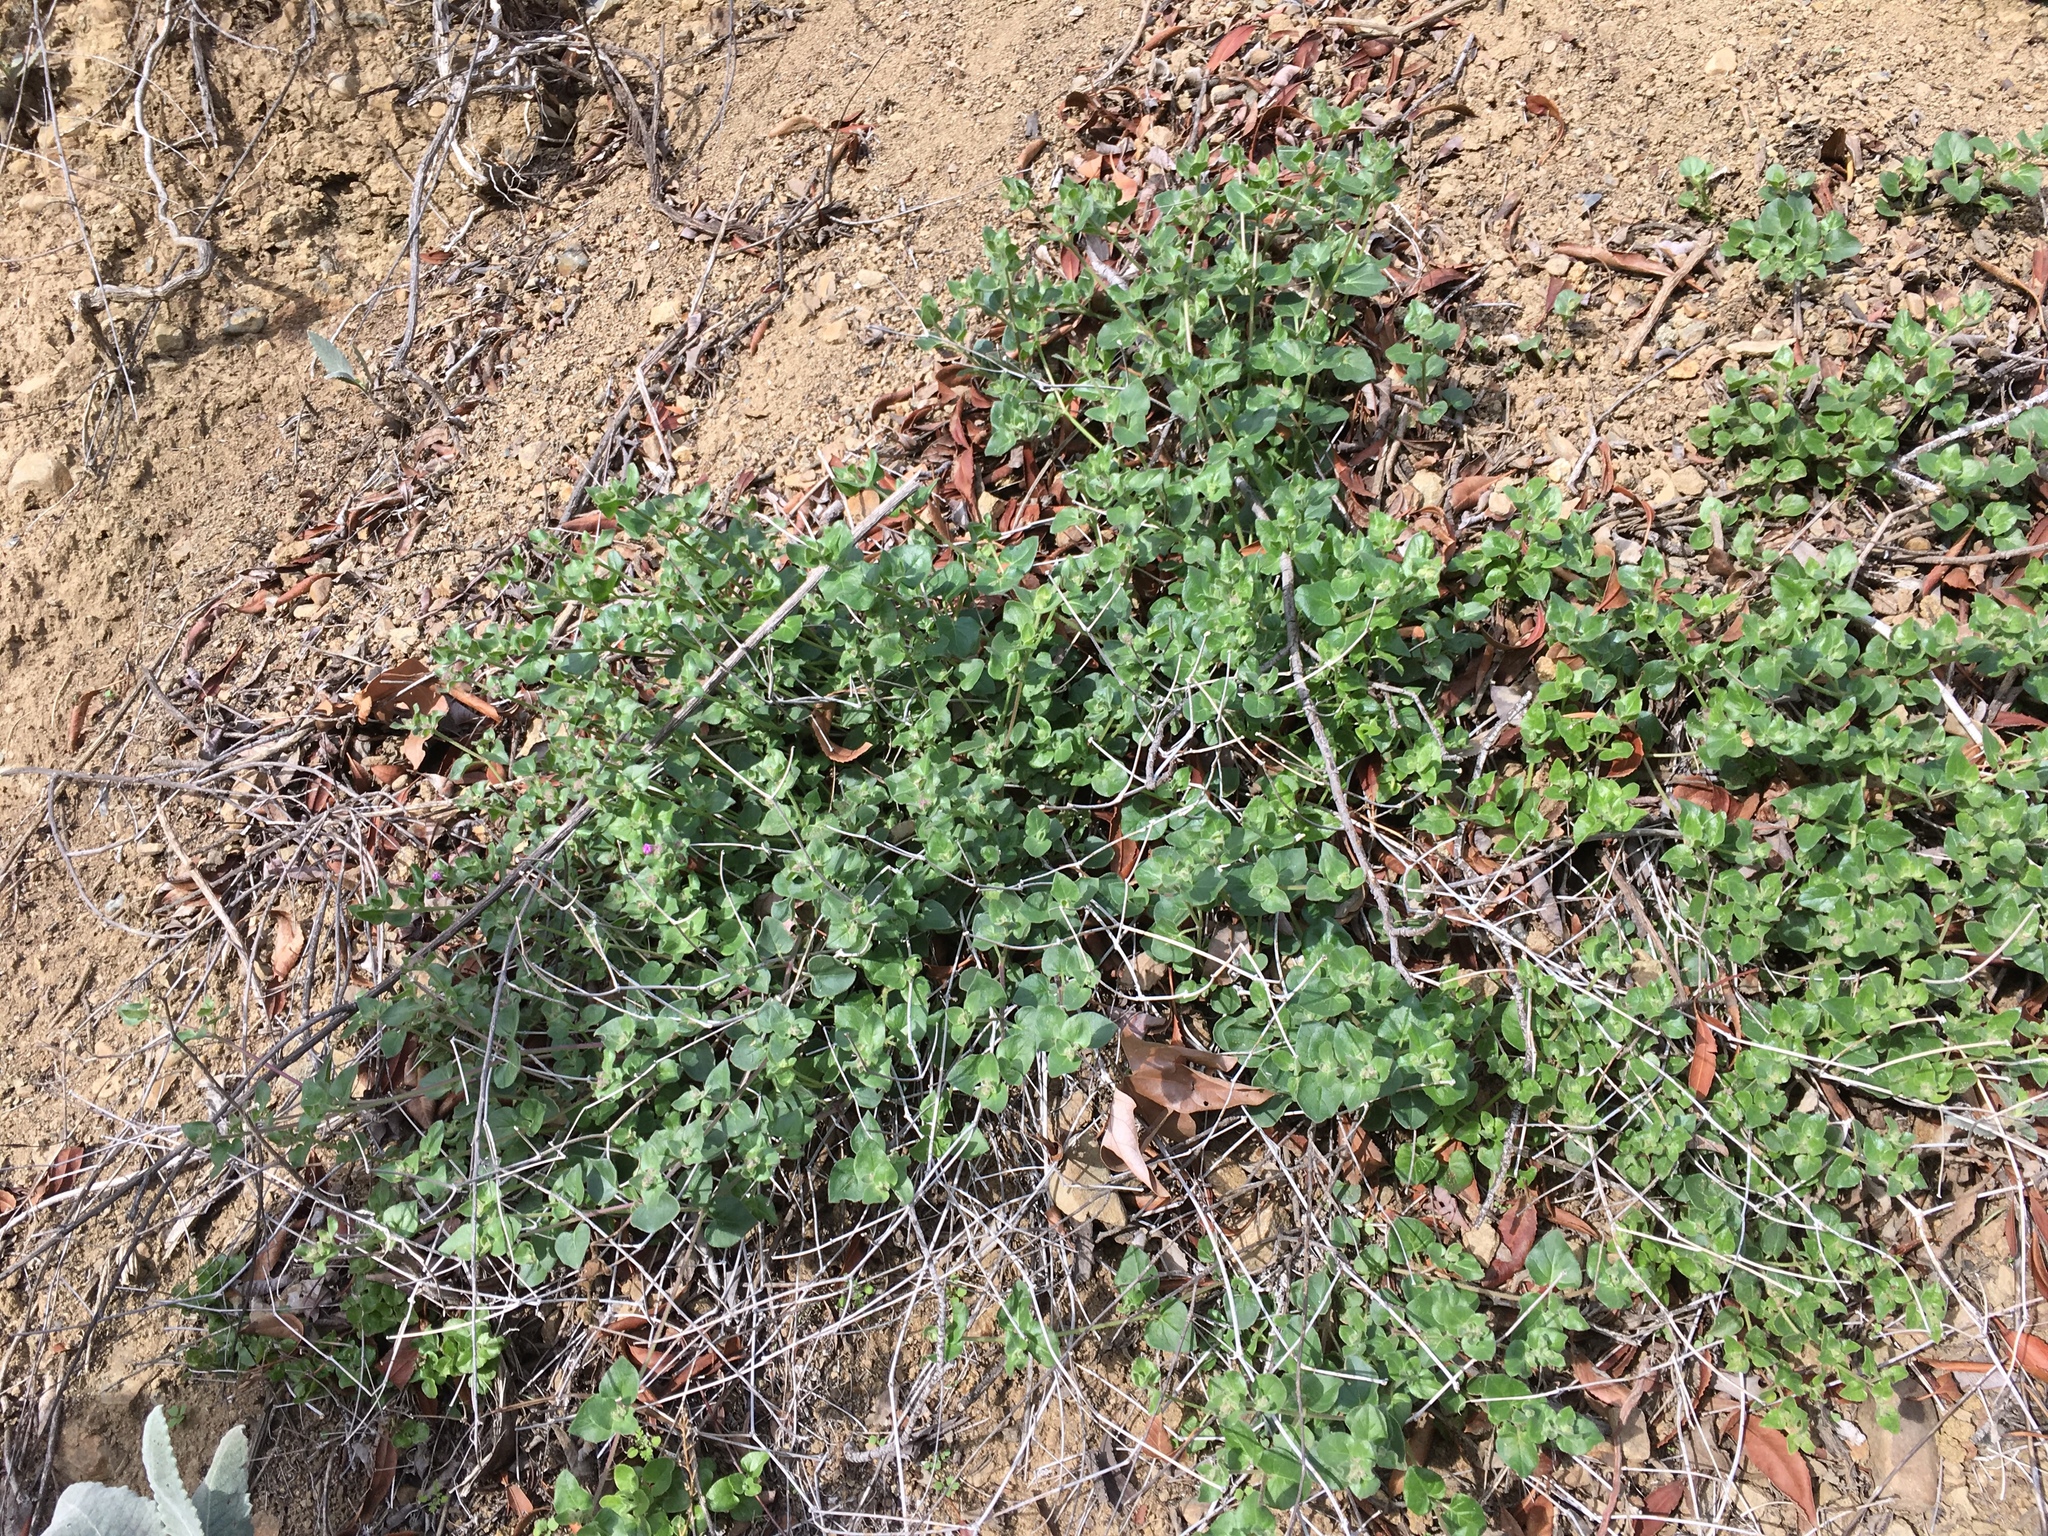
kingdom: Plantae
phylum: Tracheophyta
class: Magnoliopsida
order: Caryophyllales
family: Nyctaginaceae
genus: Mirabilis
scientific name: Mirabilis laevis
